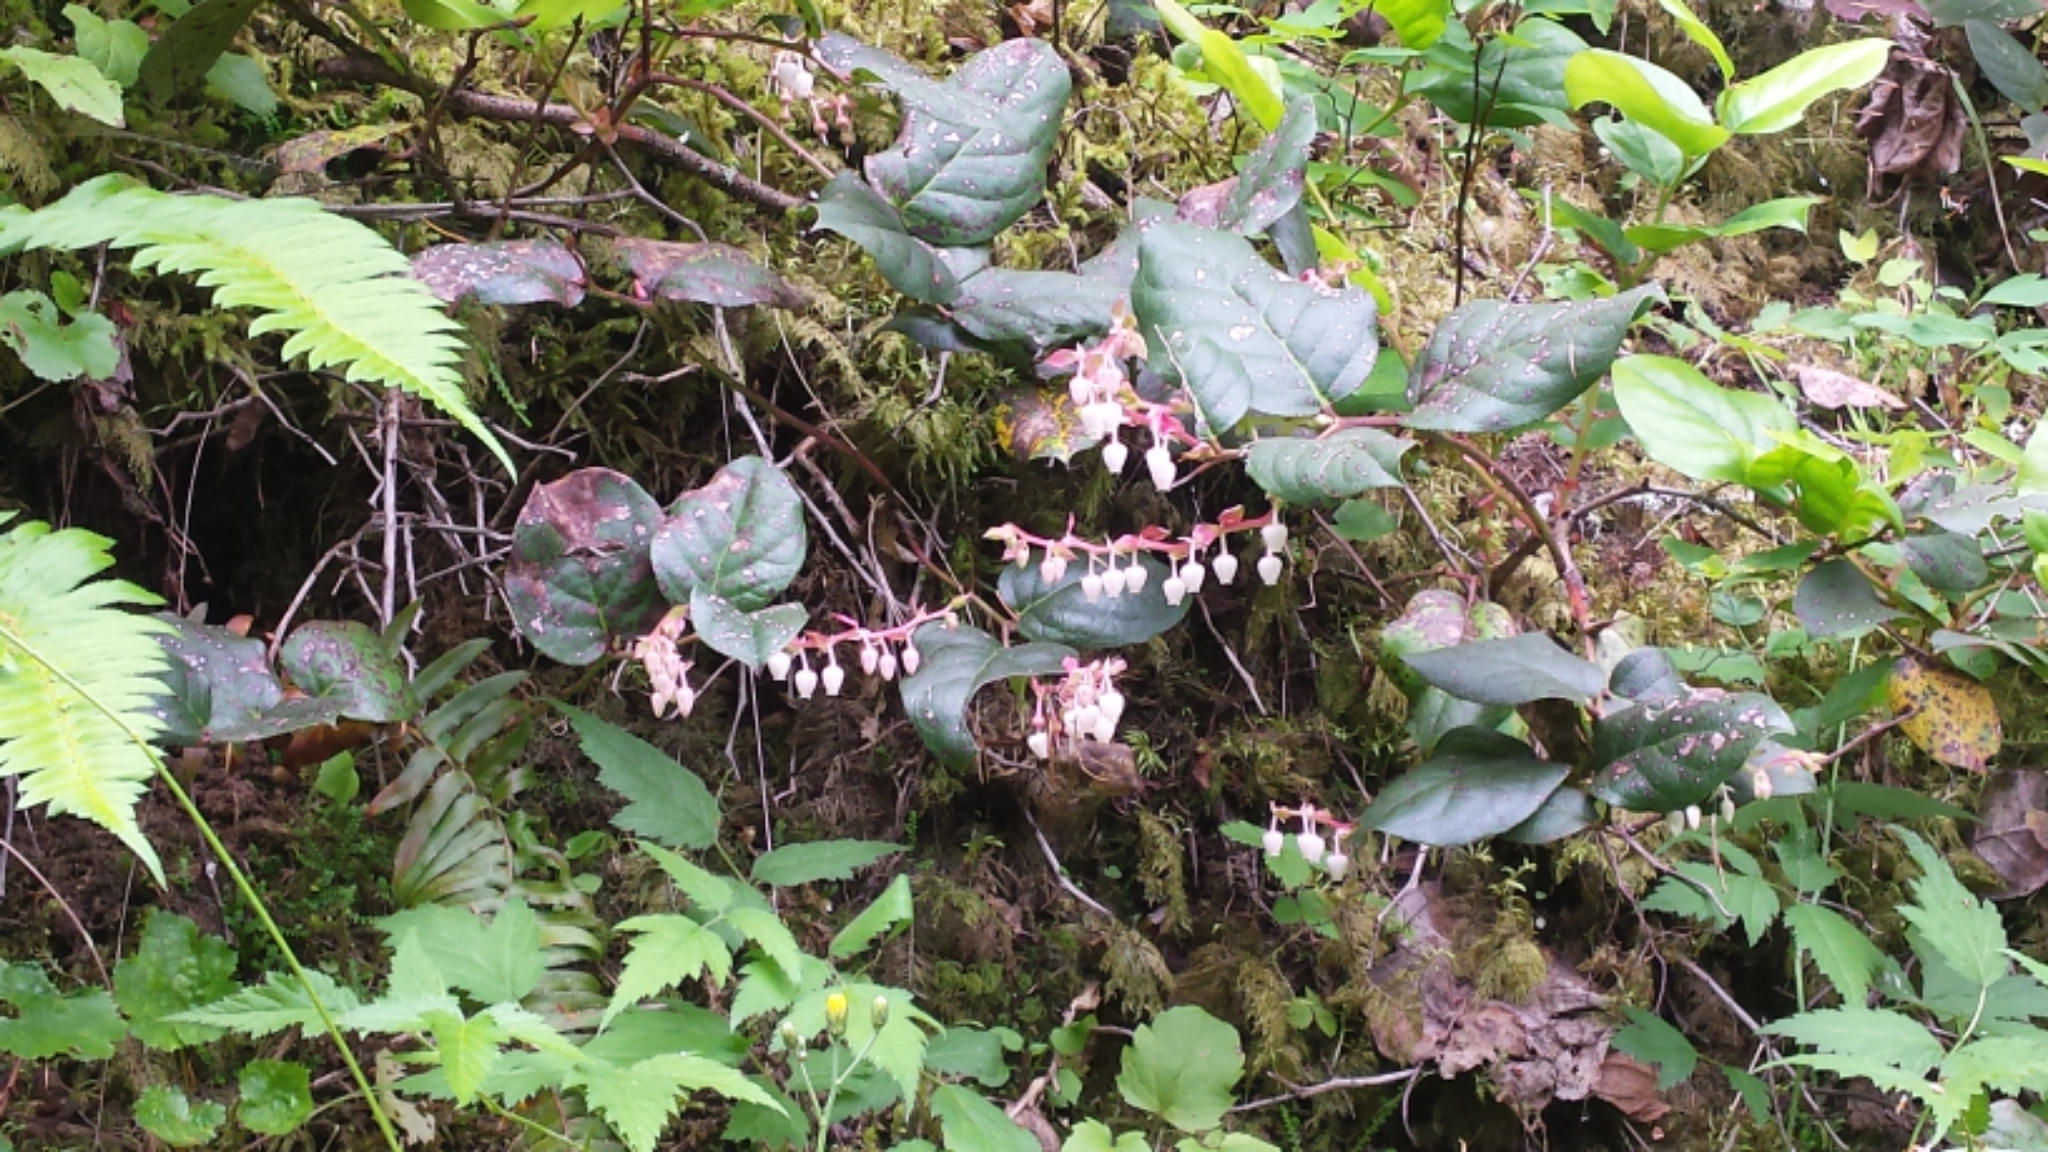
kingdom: Plantae
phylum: Tracheophyta
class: Magnoliopsida
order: Ericales
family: Ericaceae
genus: Gaultheria
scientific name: Gaultheria shallon
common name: Shallon
